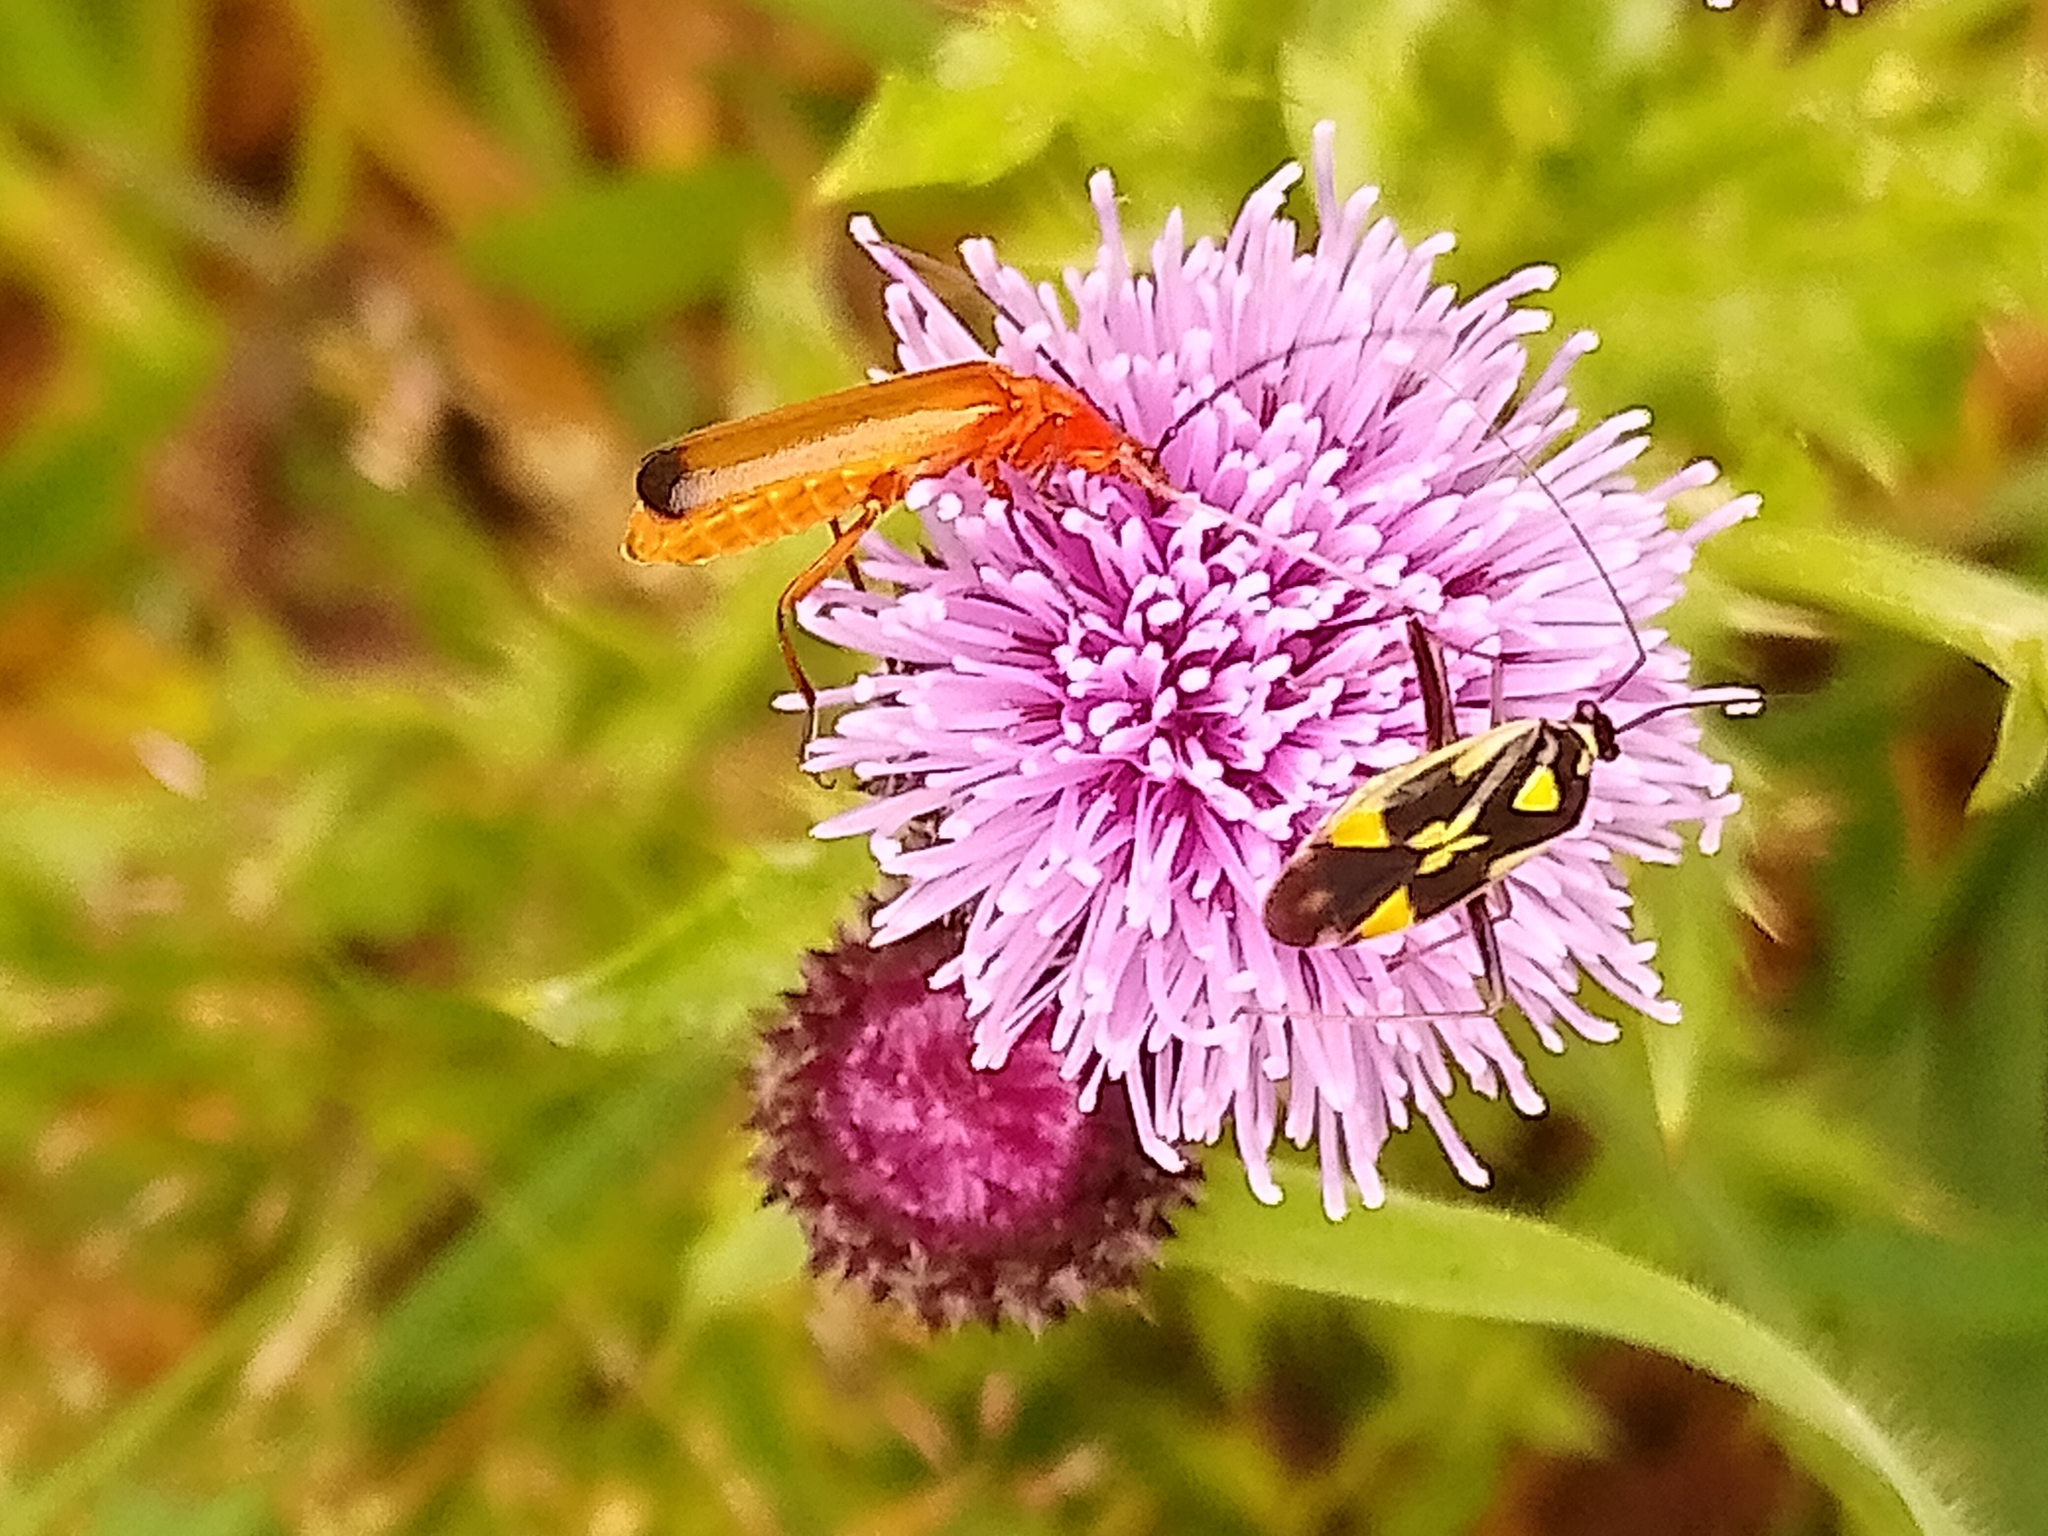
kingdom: Animalia
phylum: Arthropoda
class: Insecta
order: Hemiptera
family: Miridae
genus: Grypocoris
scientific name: Grypocoris stysi
